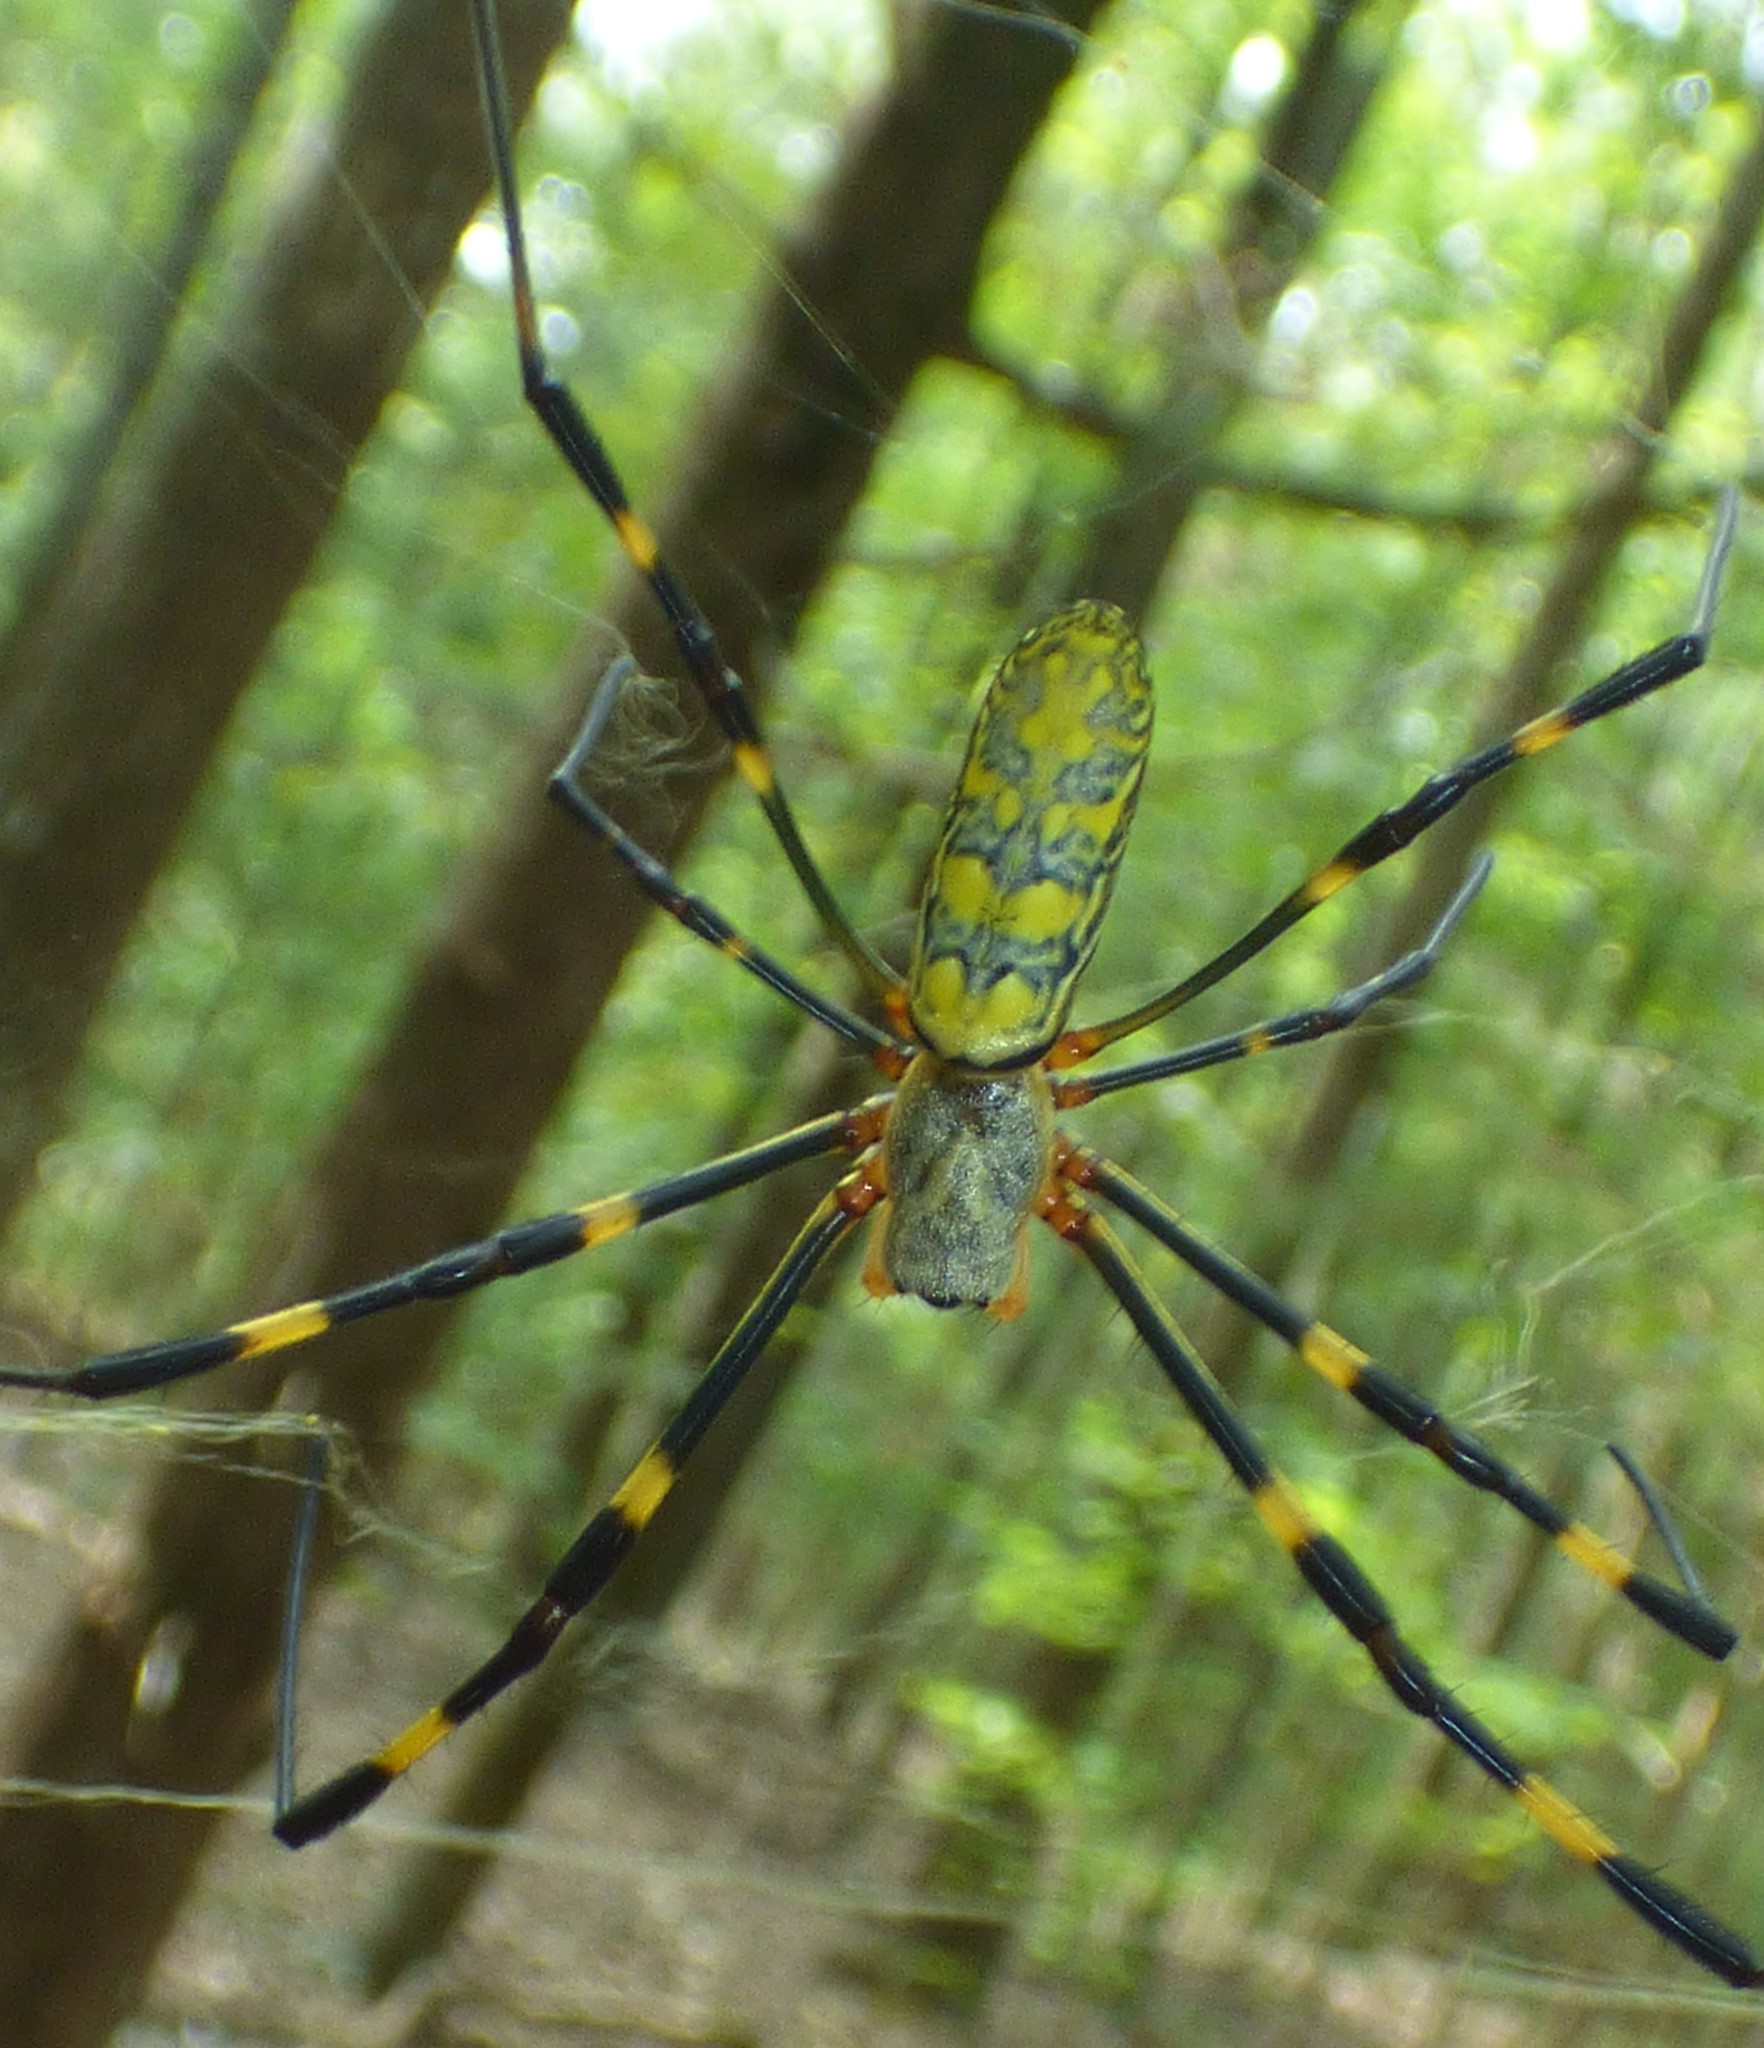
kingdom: Animalia
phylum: Arthropoda
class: Arachnida
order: Araneae
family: Araneidae
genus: Trichonephila
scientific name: Trichonephila clavata
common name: Jorō spider
